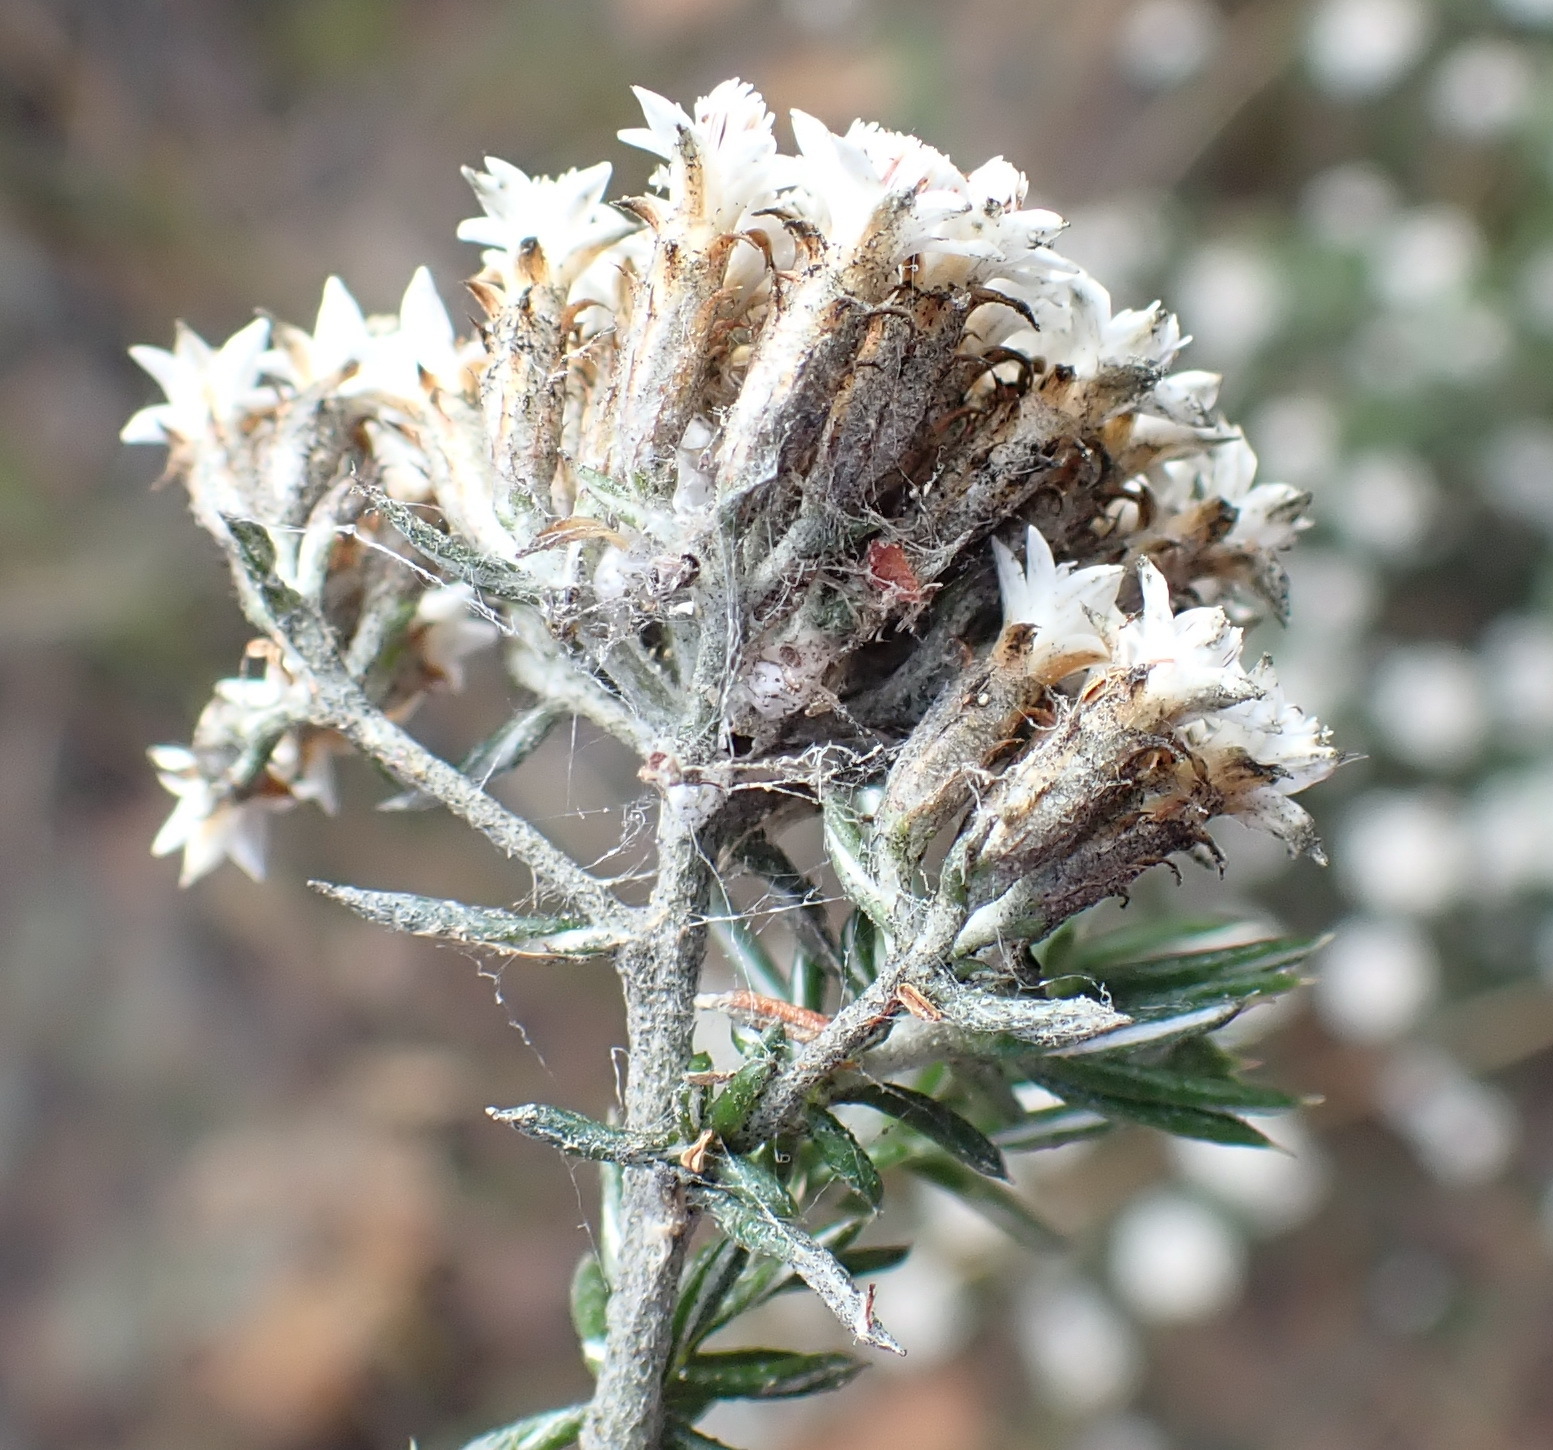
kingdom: Plantae
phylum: Tracheophyta
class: Magnoliopsida
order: Asterales
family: Asteraceae
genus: Metalasia
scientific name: Metalasia massonii
